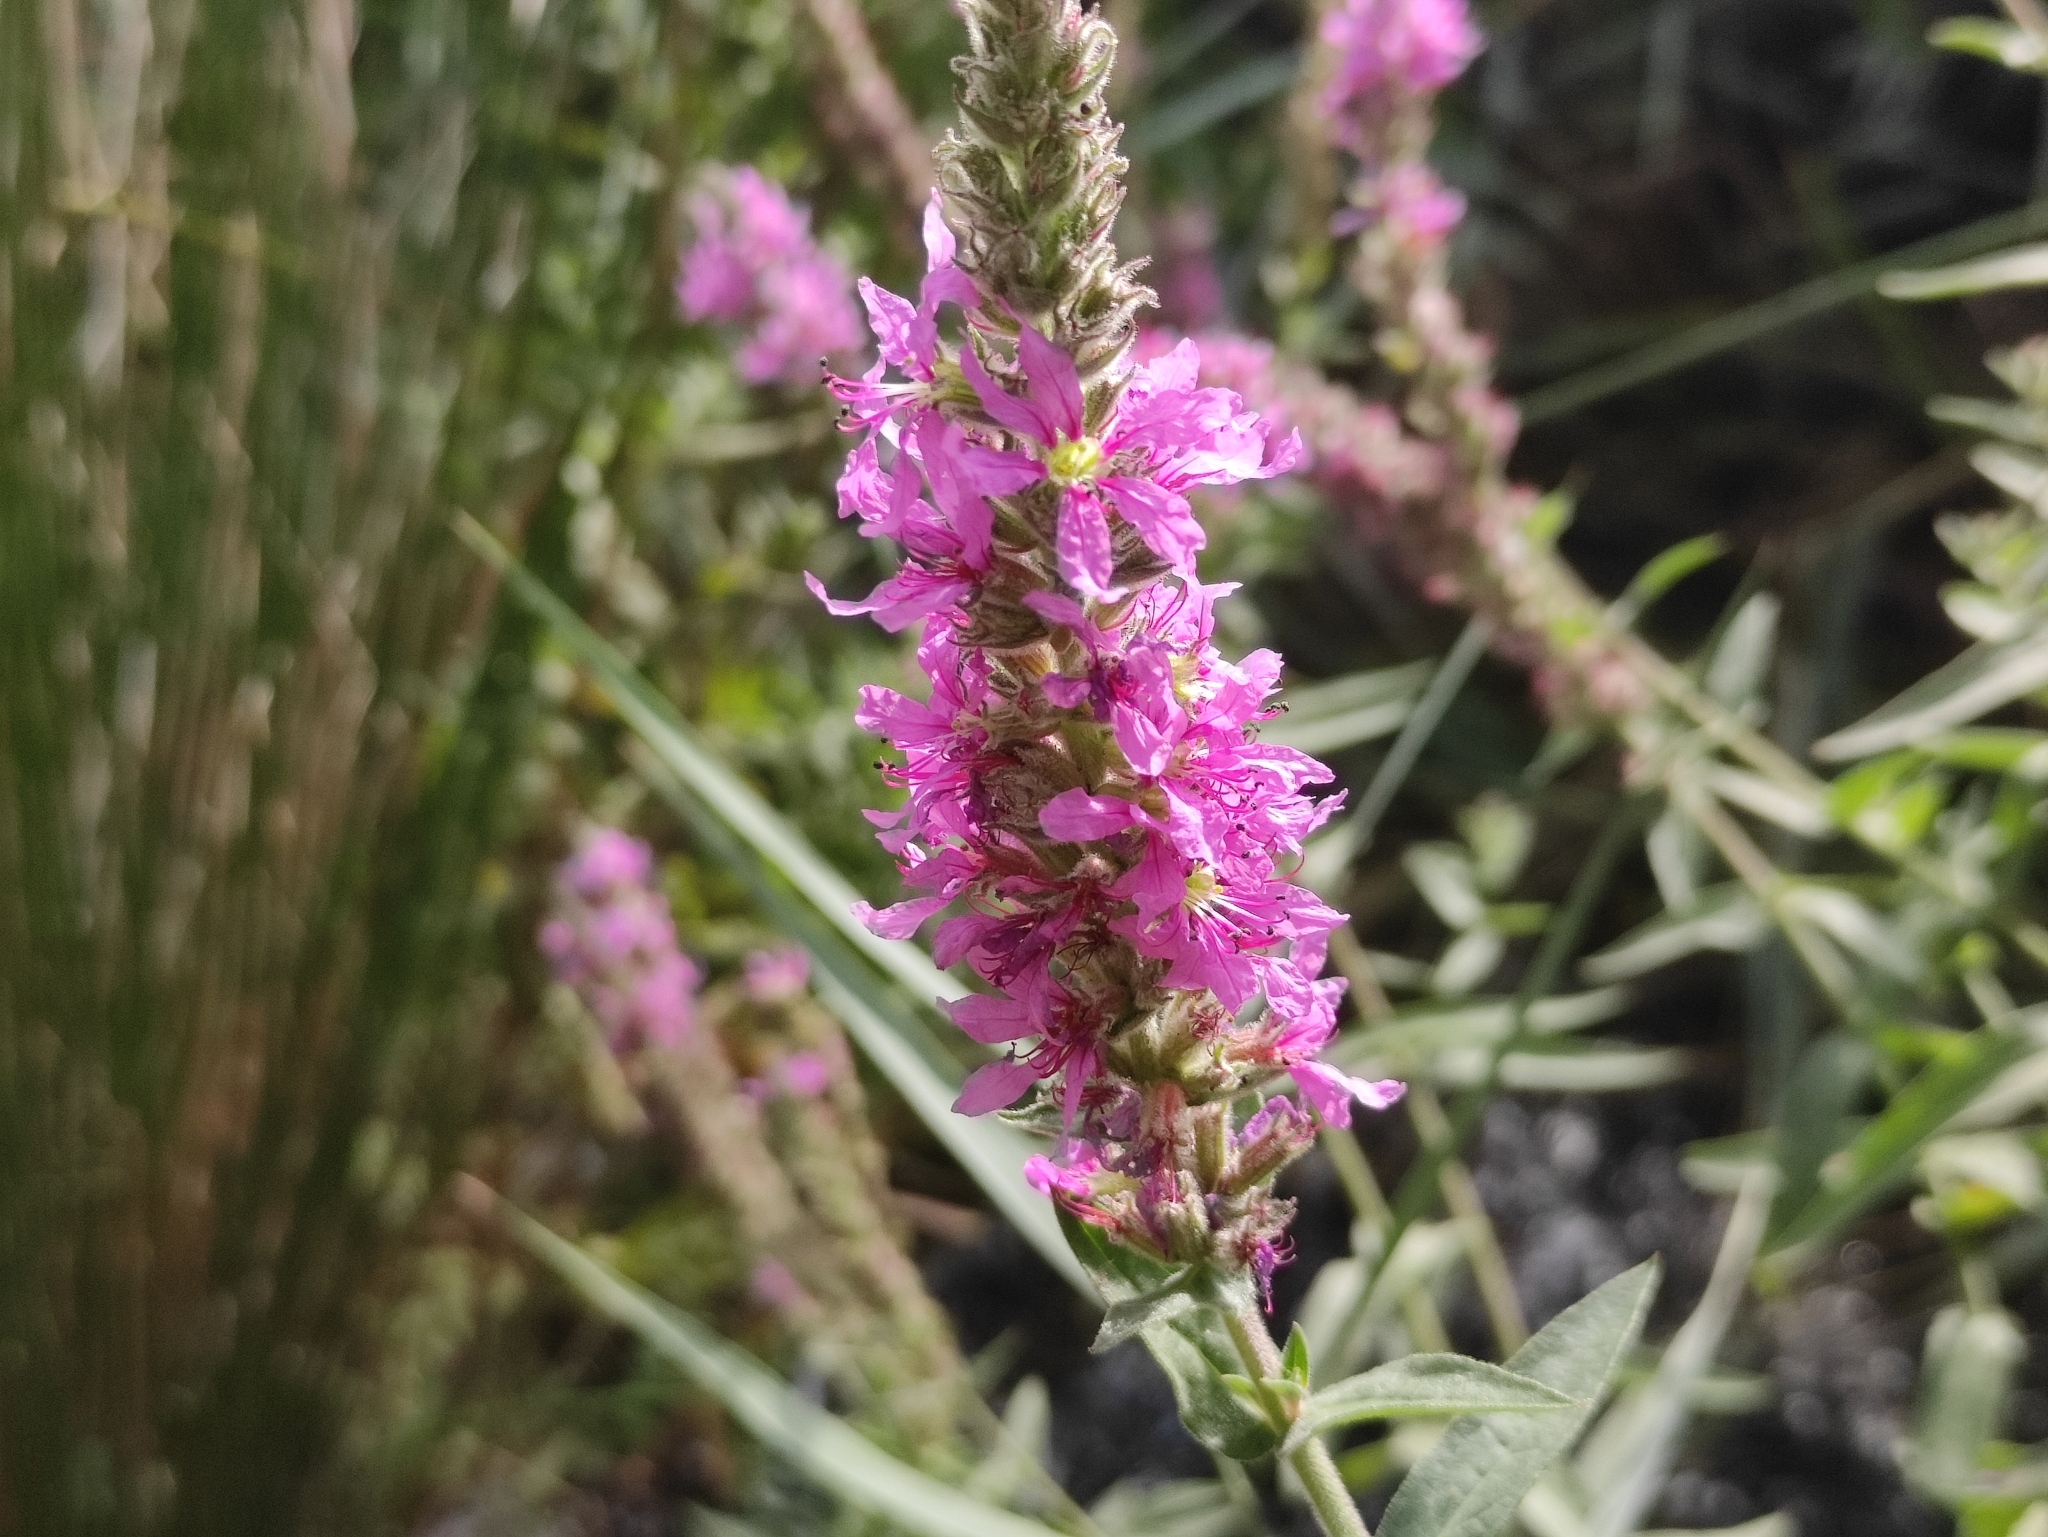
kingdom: Plantae
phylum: Tracheophyta
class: Magnoliopsida
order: Myrtales
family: Lythraceae
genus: Lythrum
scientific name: Lythrum salicaria
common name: Purple loosestrife
